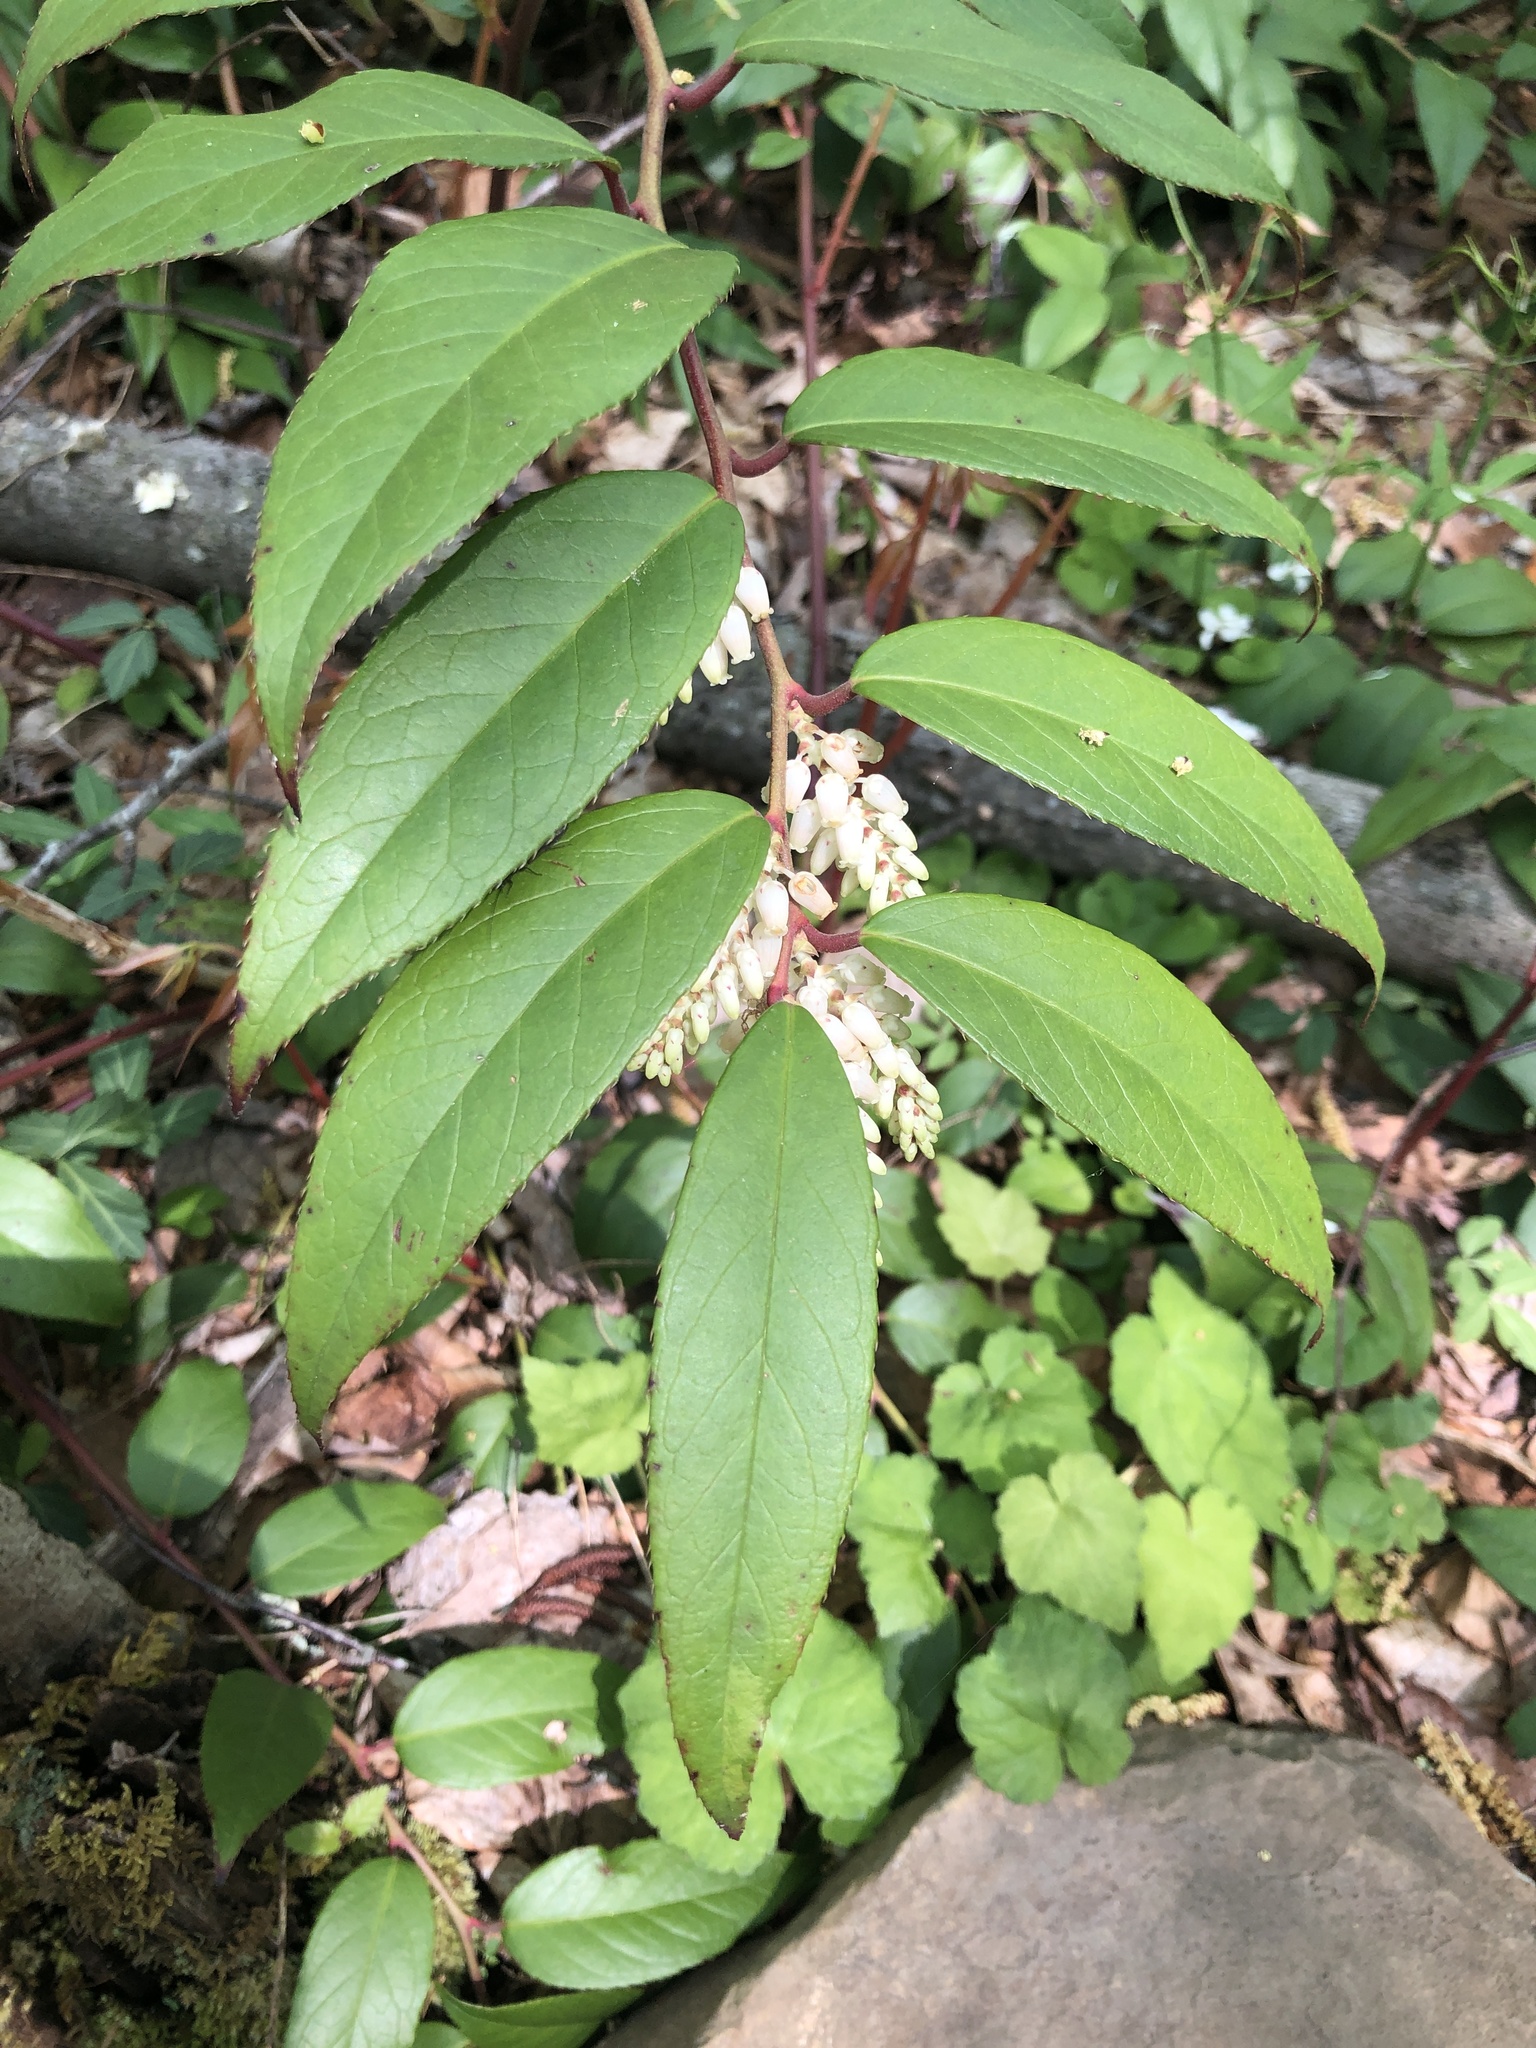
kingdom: Plantae
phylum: Tracheophyta
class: Magnoliopsida
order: Ericales
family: Ericaceae
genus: Leucothoe
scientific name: Leucothoe fontanesiana
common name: Fetterbush
